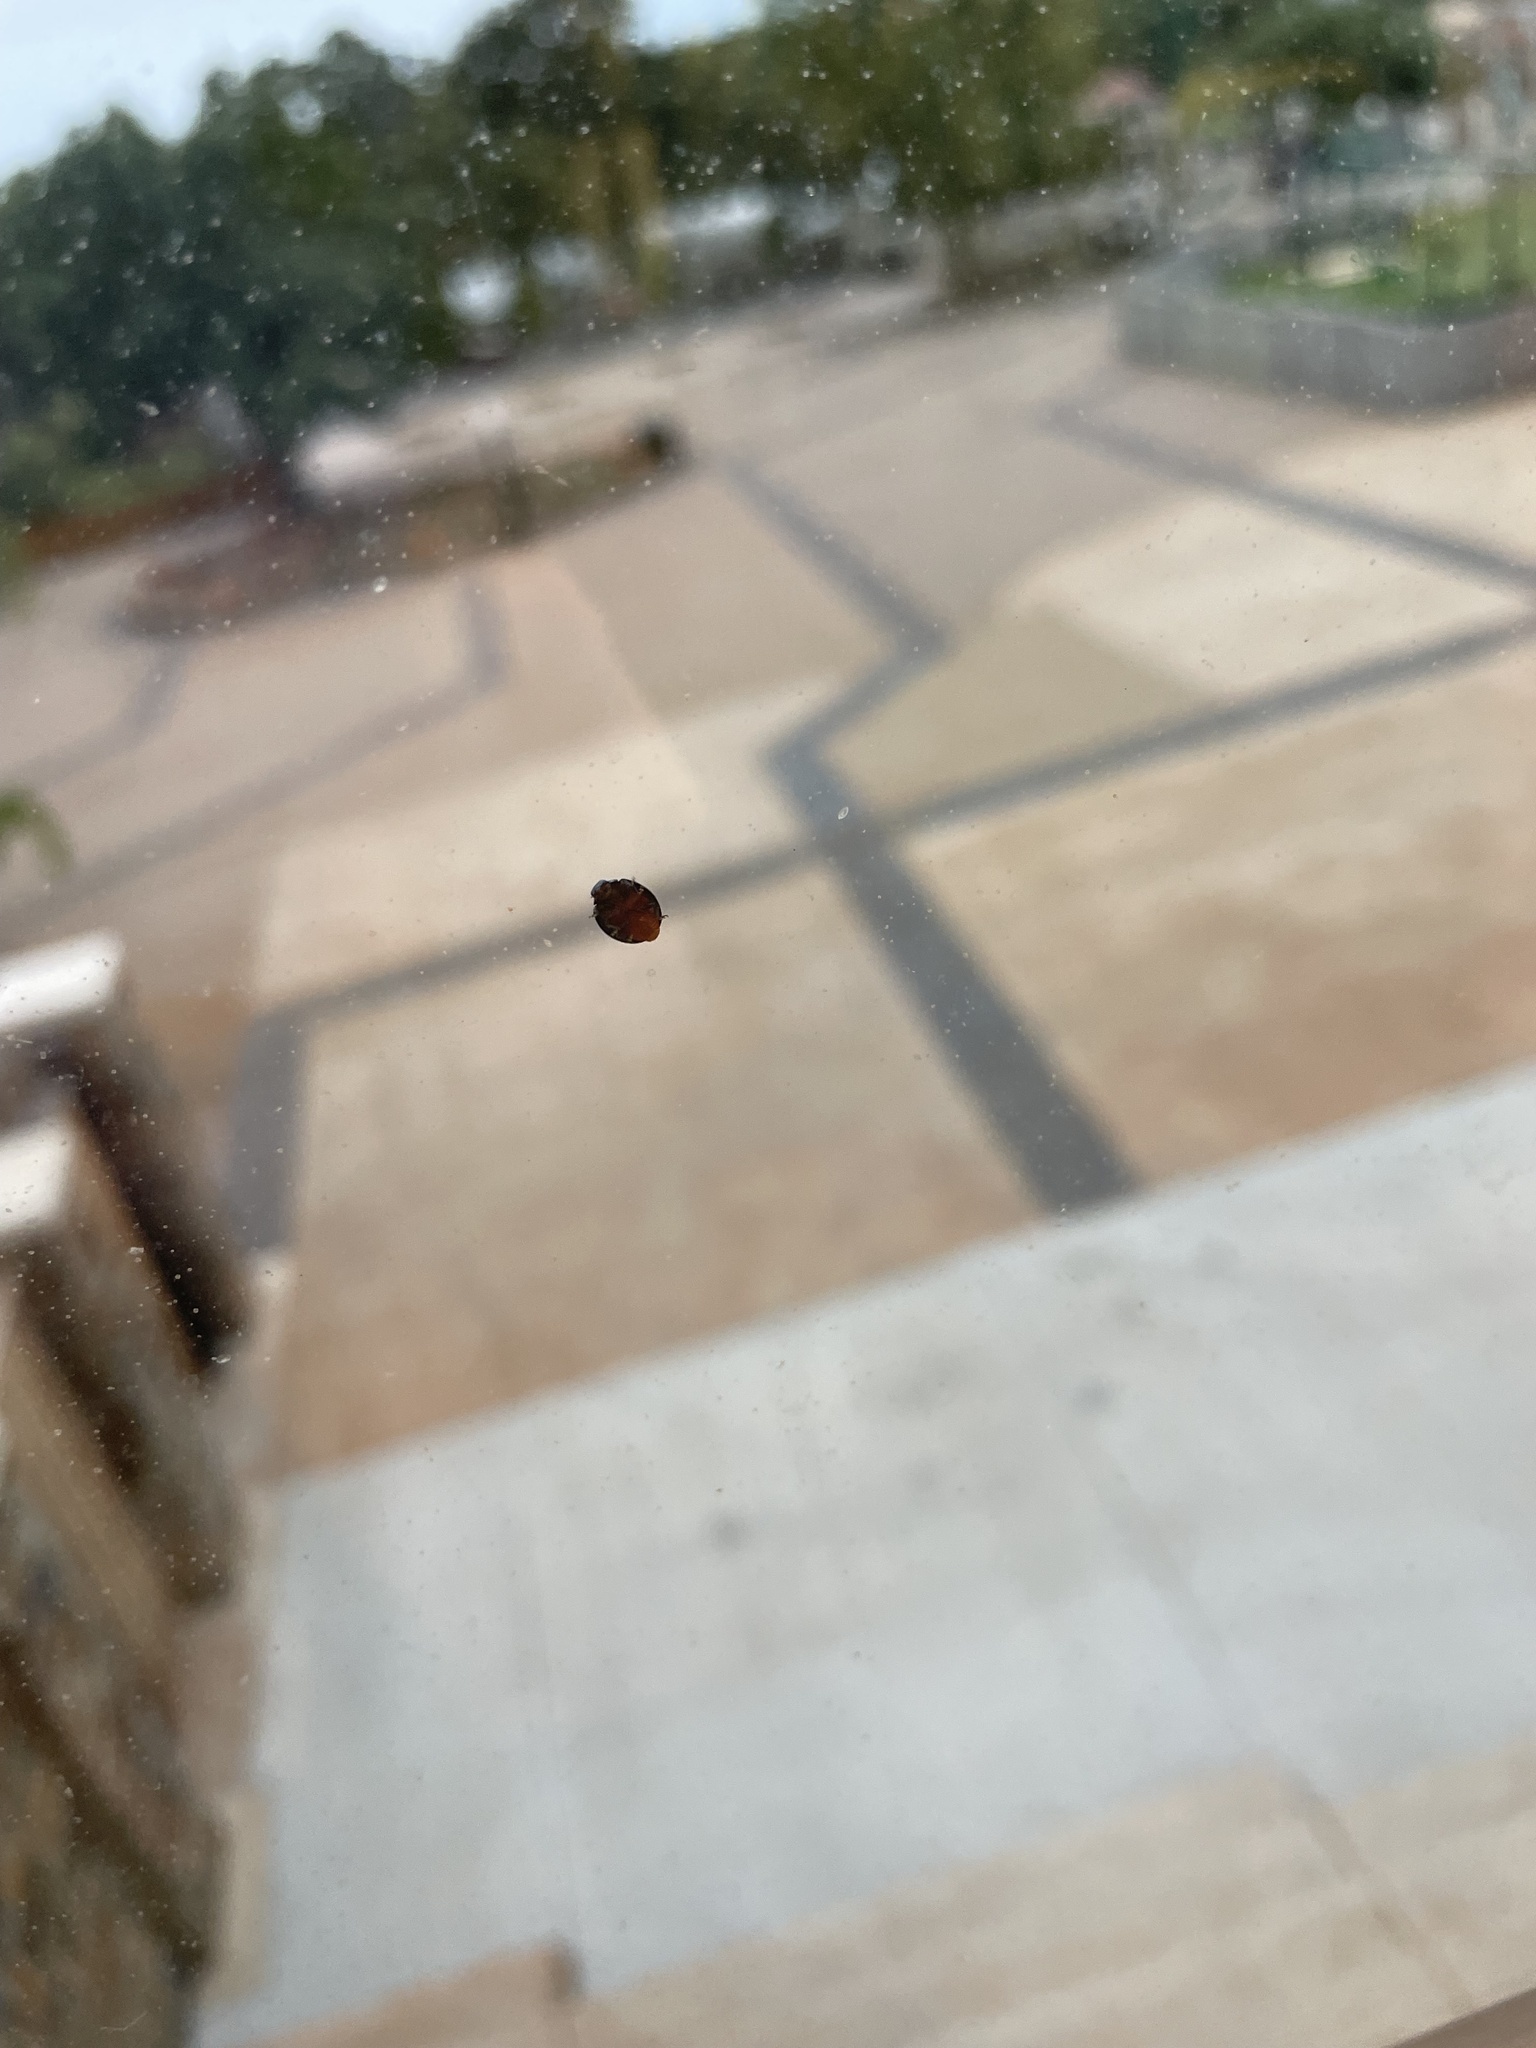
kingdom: Animalia
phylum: Arthropoda
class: Insecta
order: Coleoptera
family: Coccinellidae
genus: Olla
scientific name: Olla v-nigrum
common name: Ashy gray lady beetle
